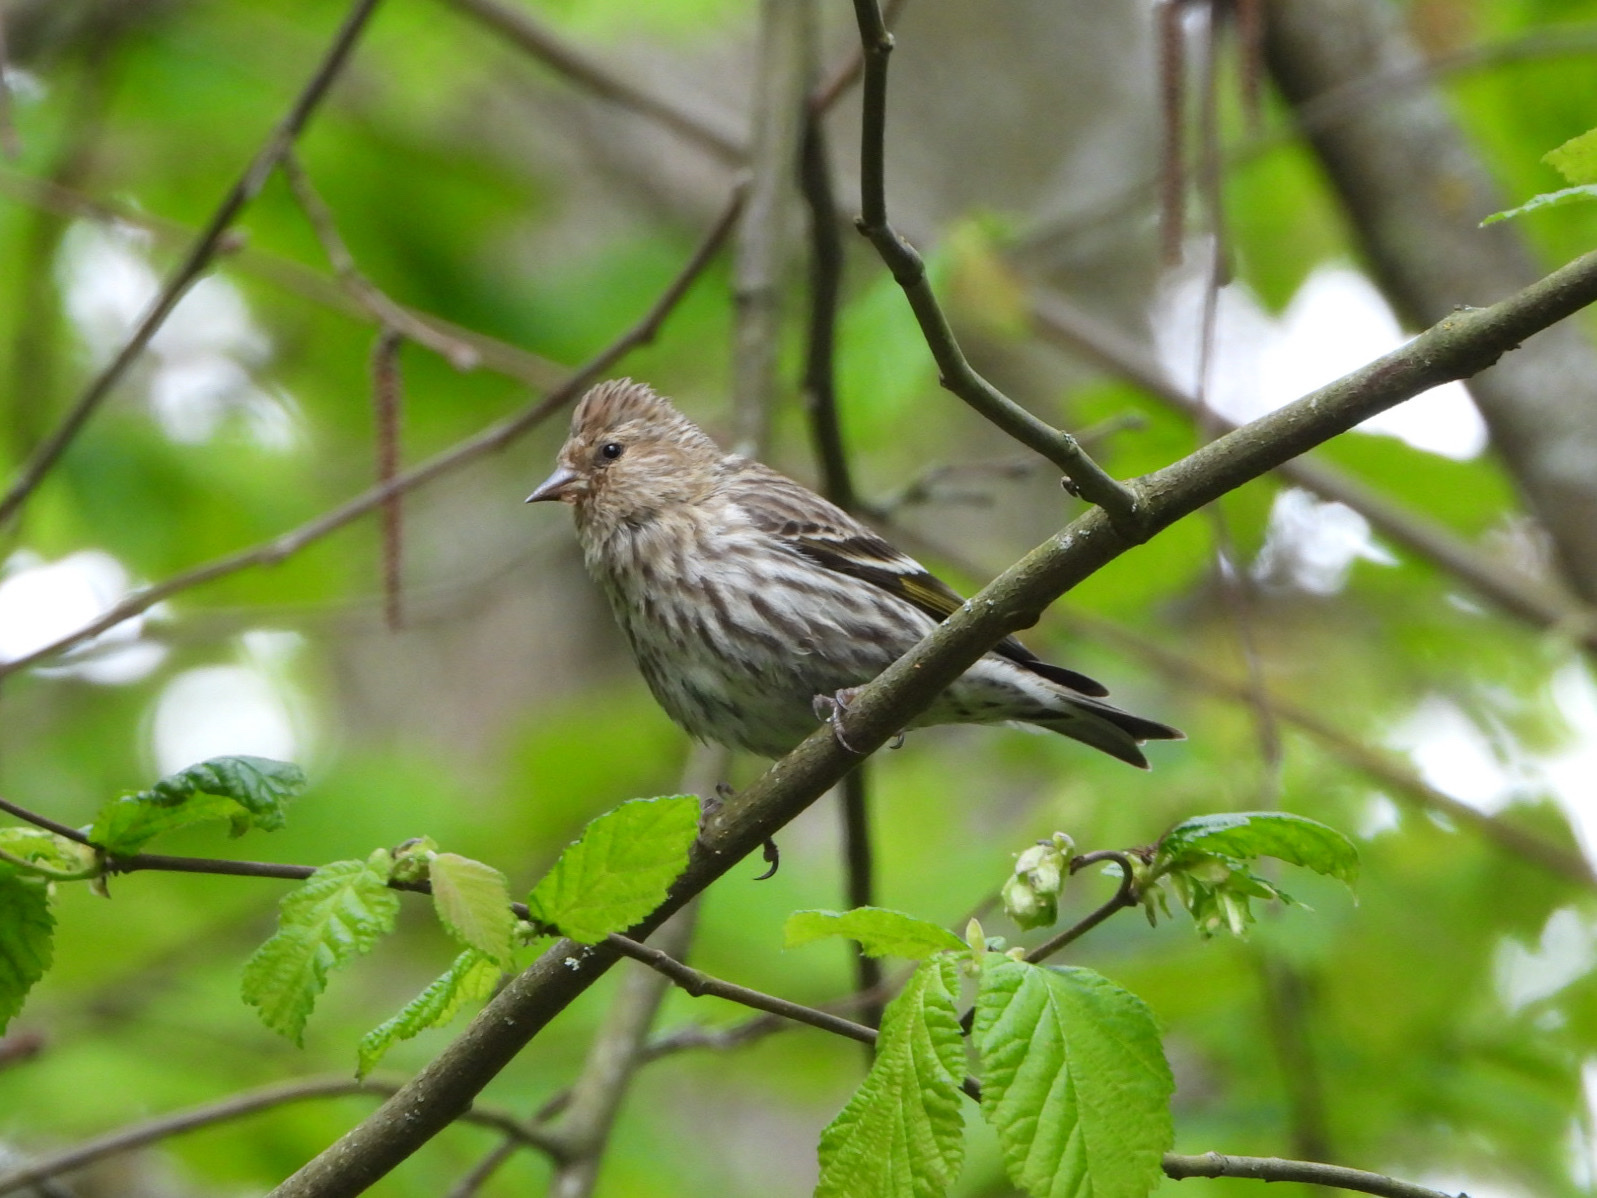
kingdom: Animalia
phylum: Chordata
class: Aves
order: Passeriformes
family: Fringillidae
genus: Spinus
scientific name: Spinus pinus
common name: Pine siskin
